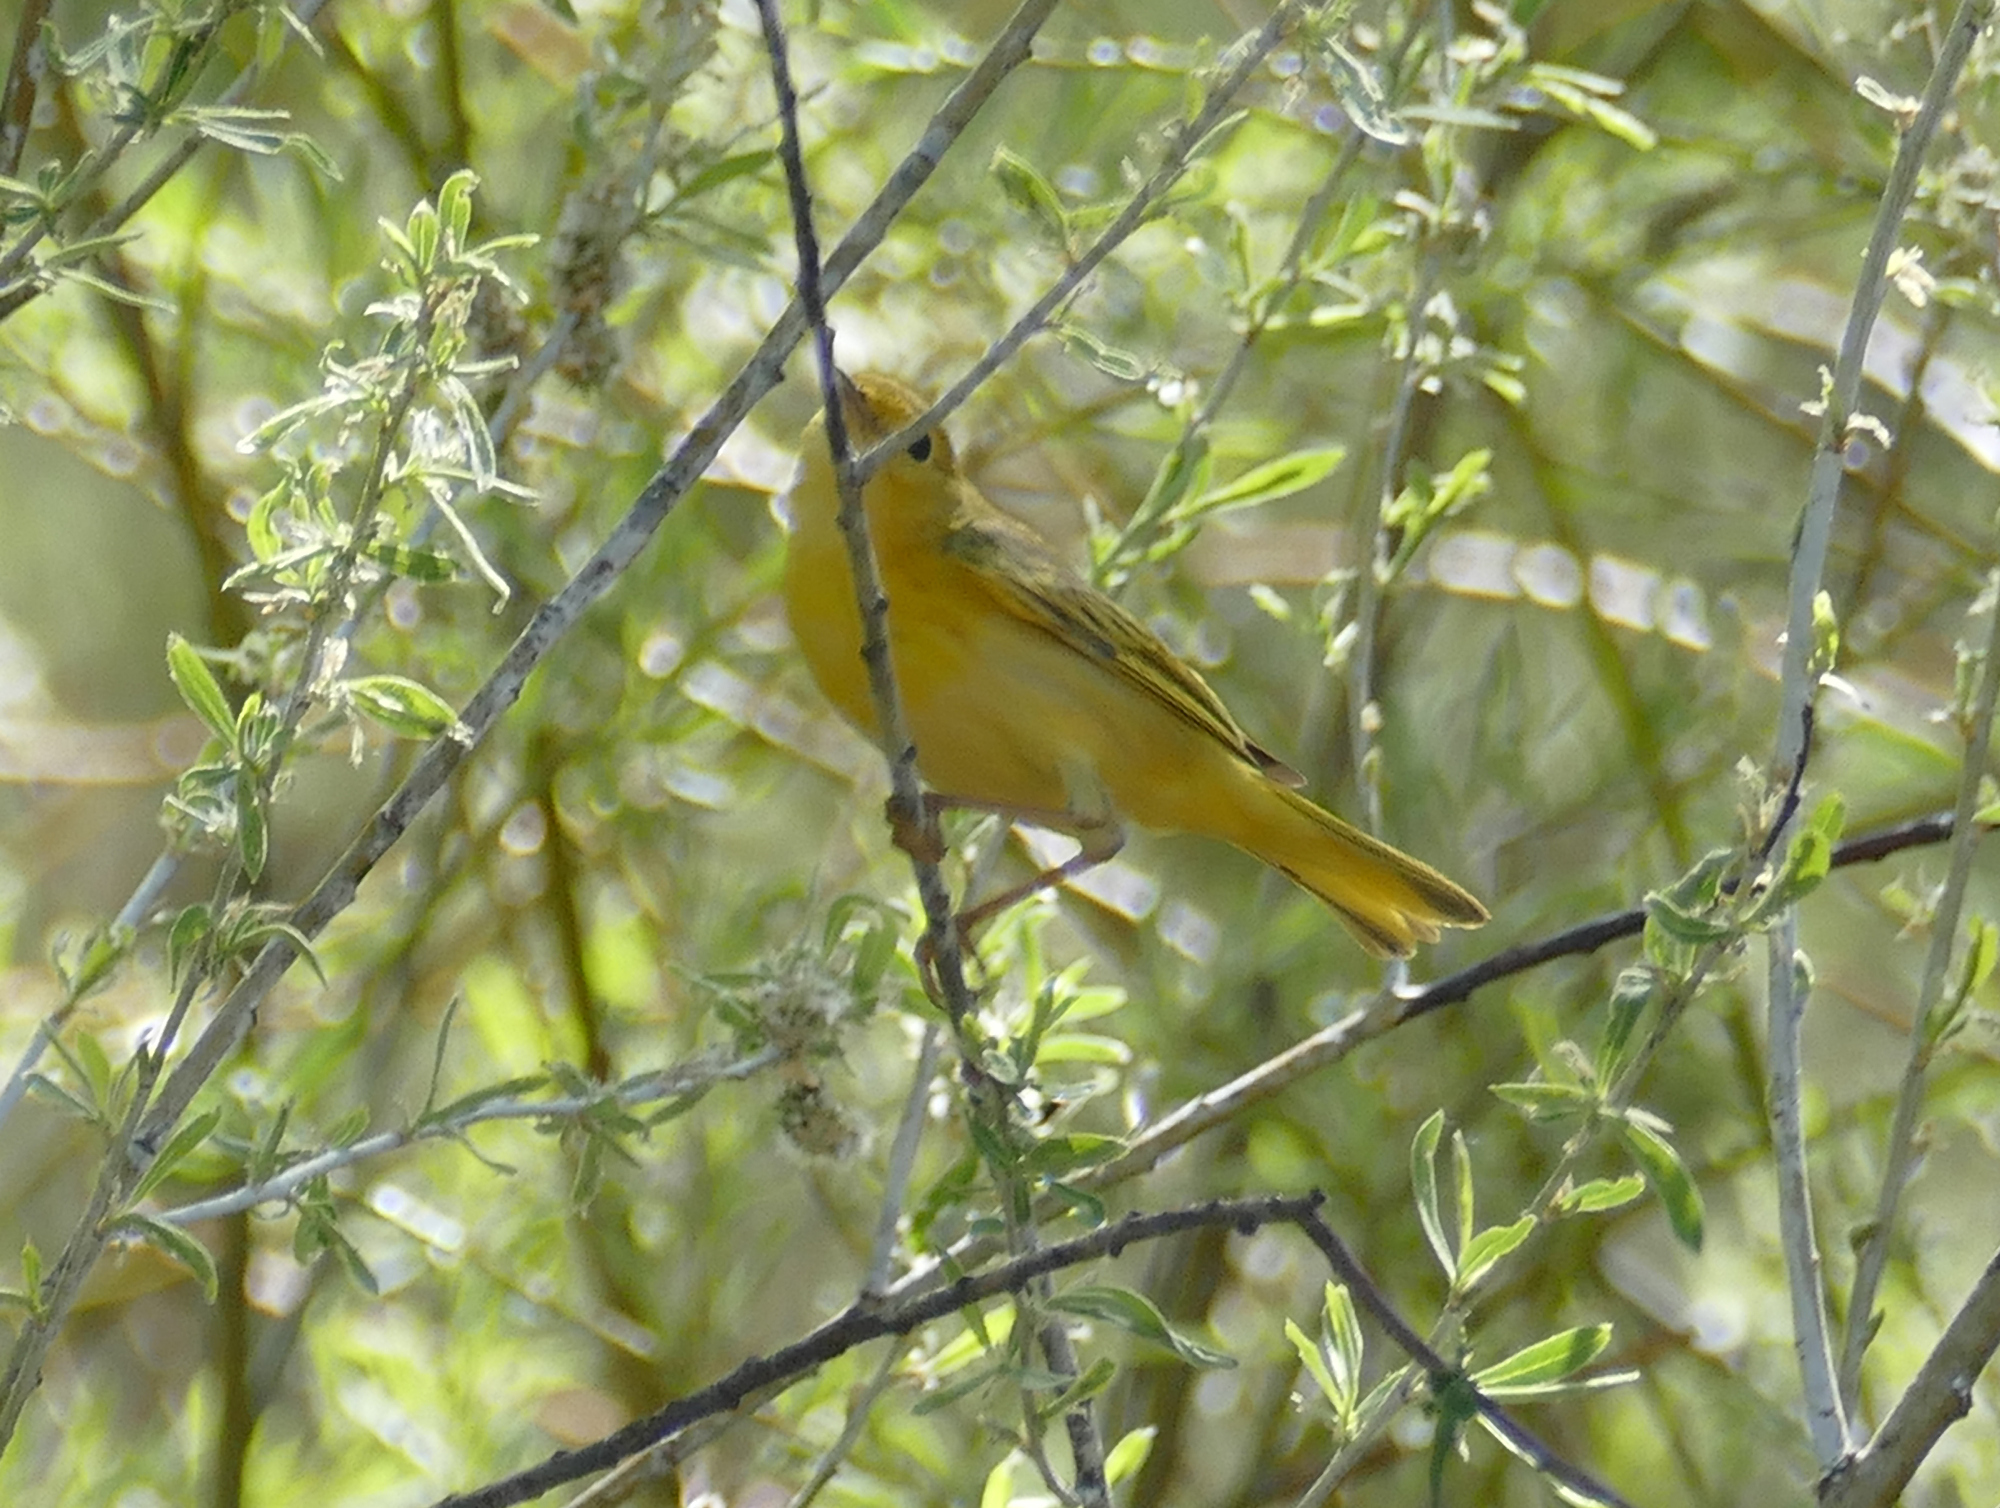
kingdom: Animalia
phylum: Chordata
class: Aves
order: Passeriformes
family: Parulidae
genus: Setophaga
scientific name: Setophaga petechia
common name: Yellow warbler
